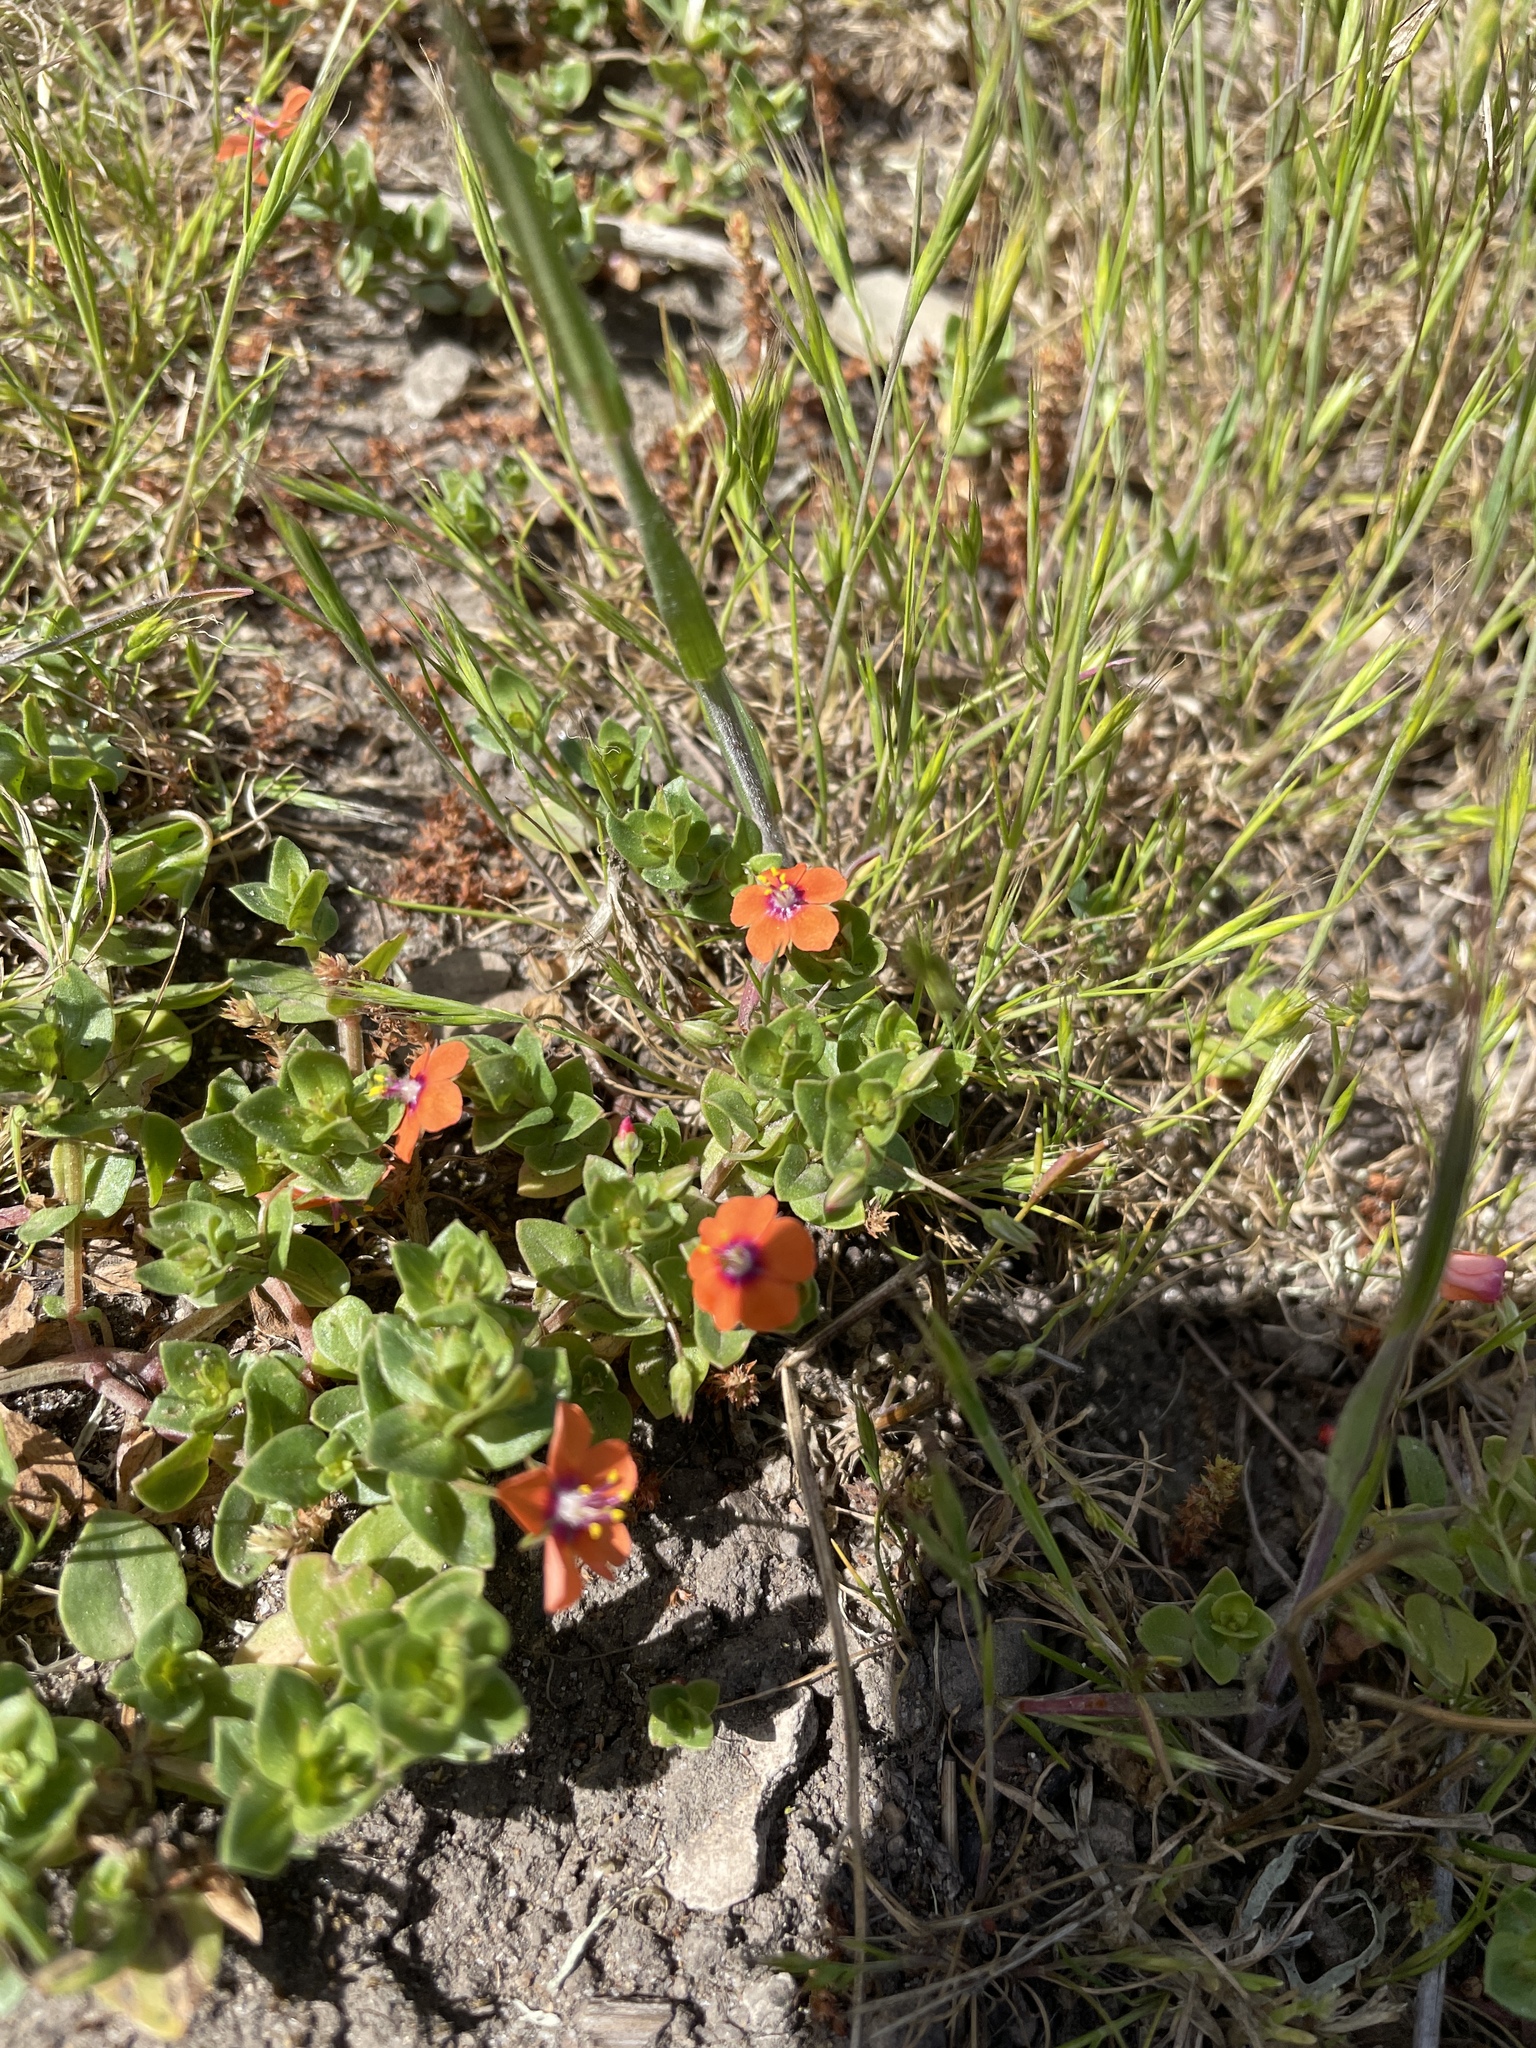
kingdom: Plantae
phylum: Tracheophyta
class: Magnoliopsida
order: Ericales
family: Primulaceae
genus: Lysimachia
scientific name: Lysimachia arvensis
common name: Scarlet pimpernel
